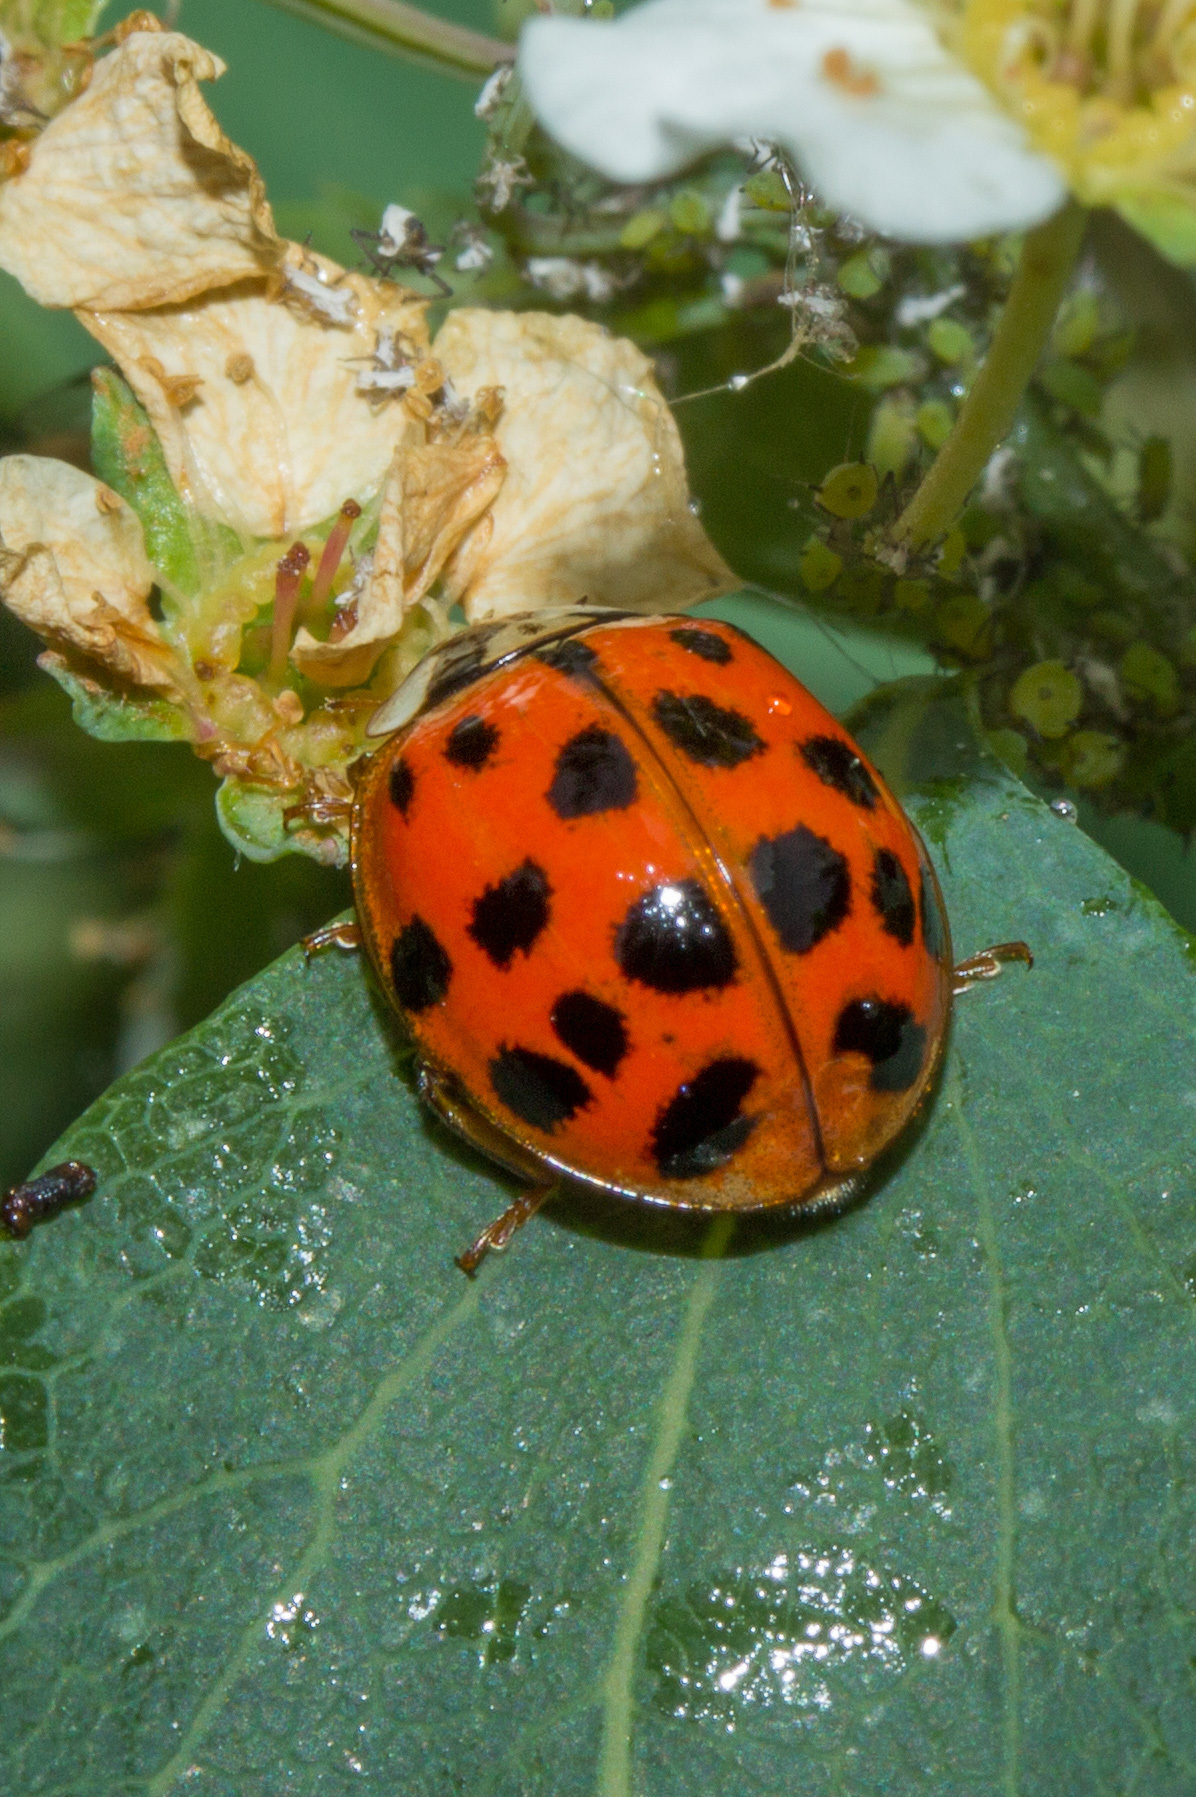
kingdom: Animalia
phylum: Arthropoda
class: Insecta
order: Coleoptera
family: Coccinellidae
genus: Harmonia
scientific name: Harmonia axyridis
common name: Harlequin ladybird
